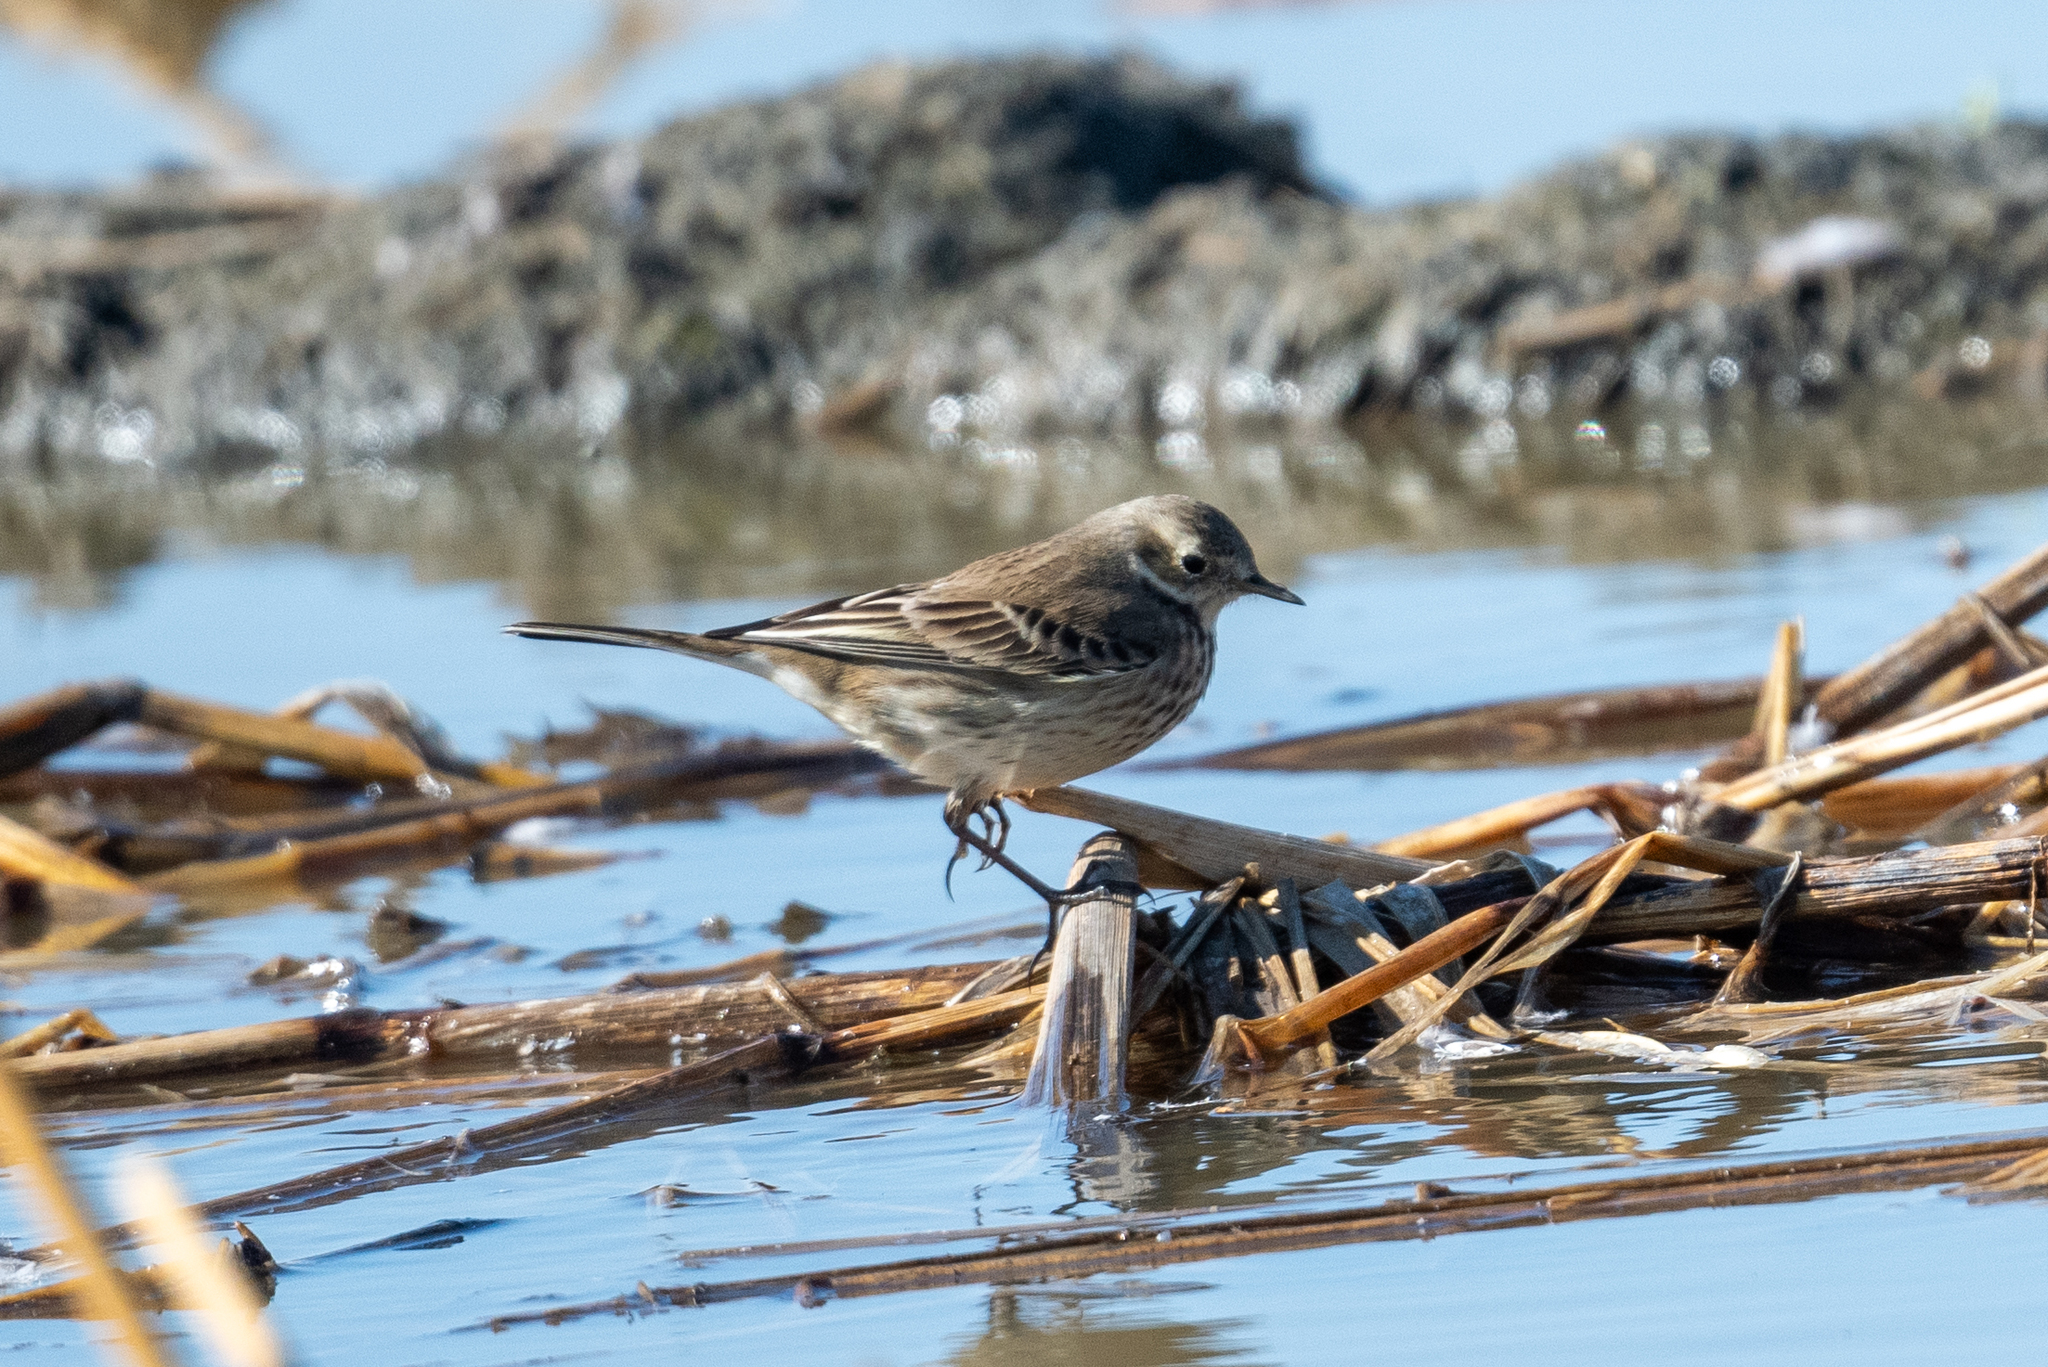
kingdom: Animalia
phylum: Chordata
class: Aves
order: Passeriformes
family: Motacillidae
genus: Anthus
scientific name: Anthus rubescens
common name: Buff-bellied pipit
